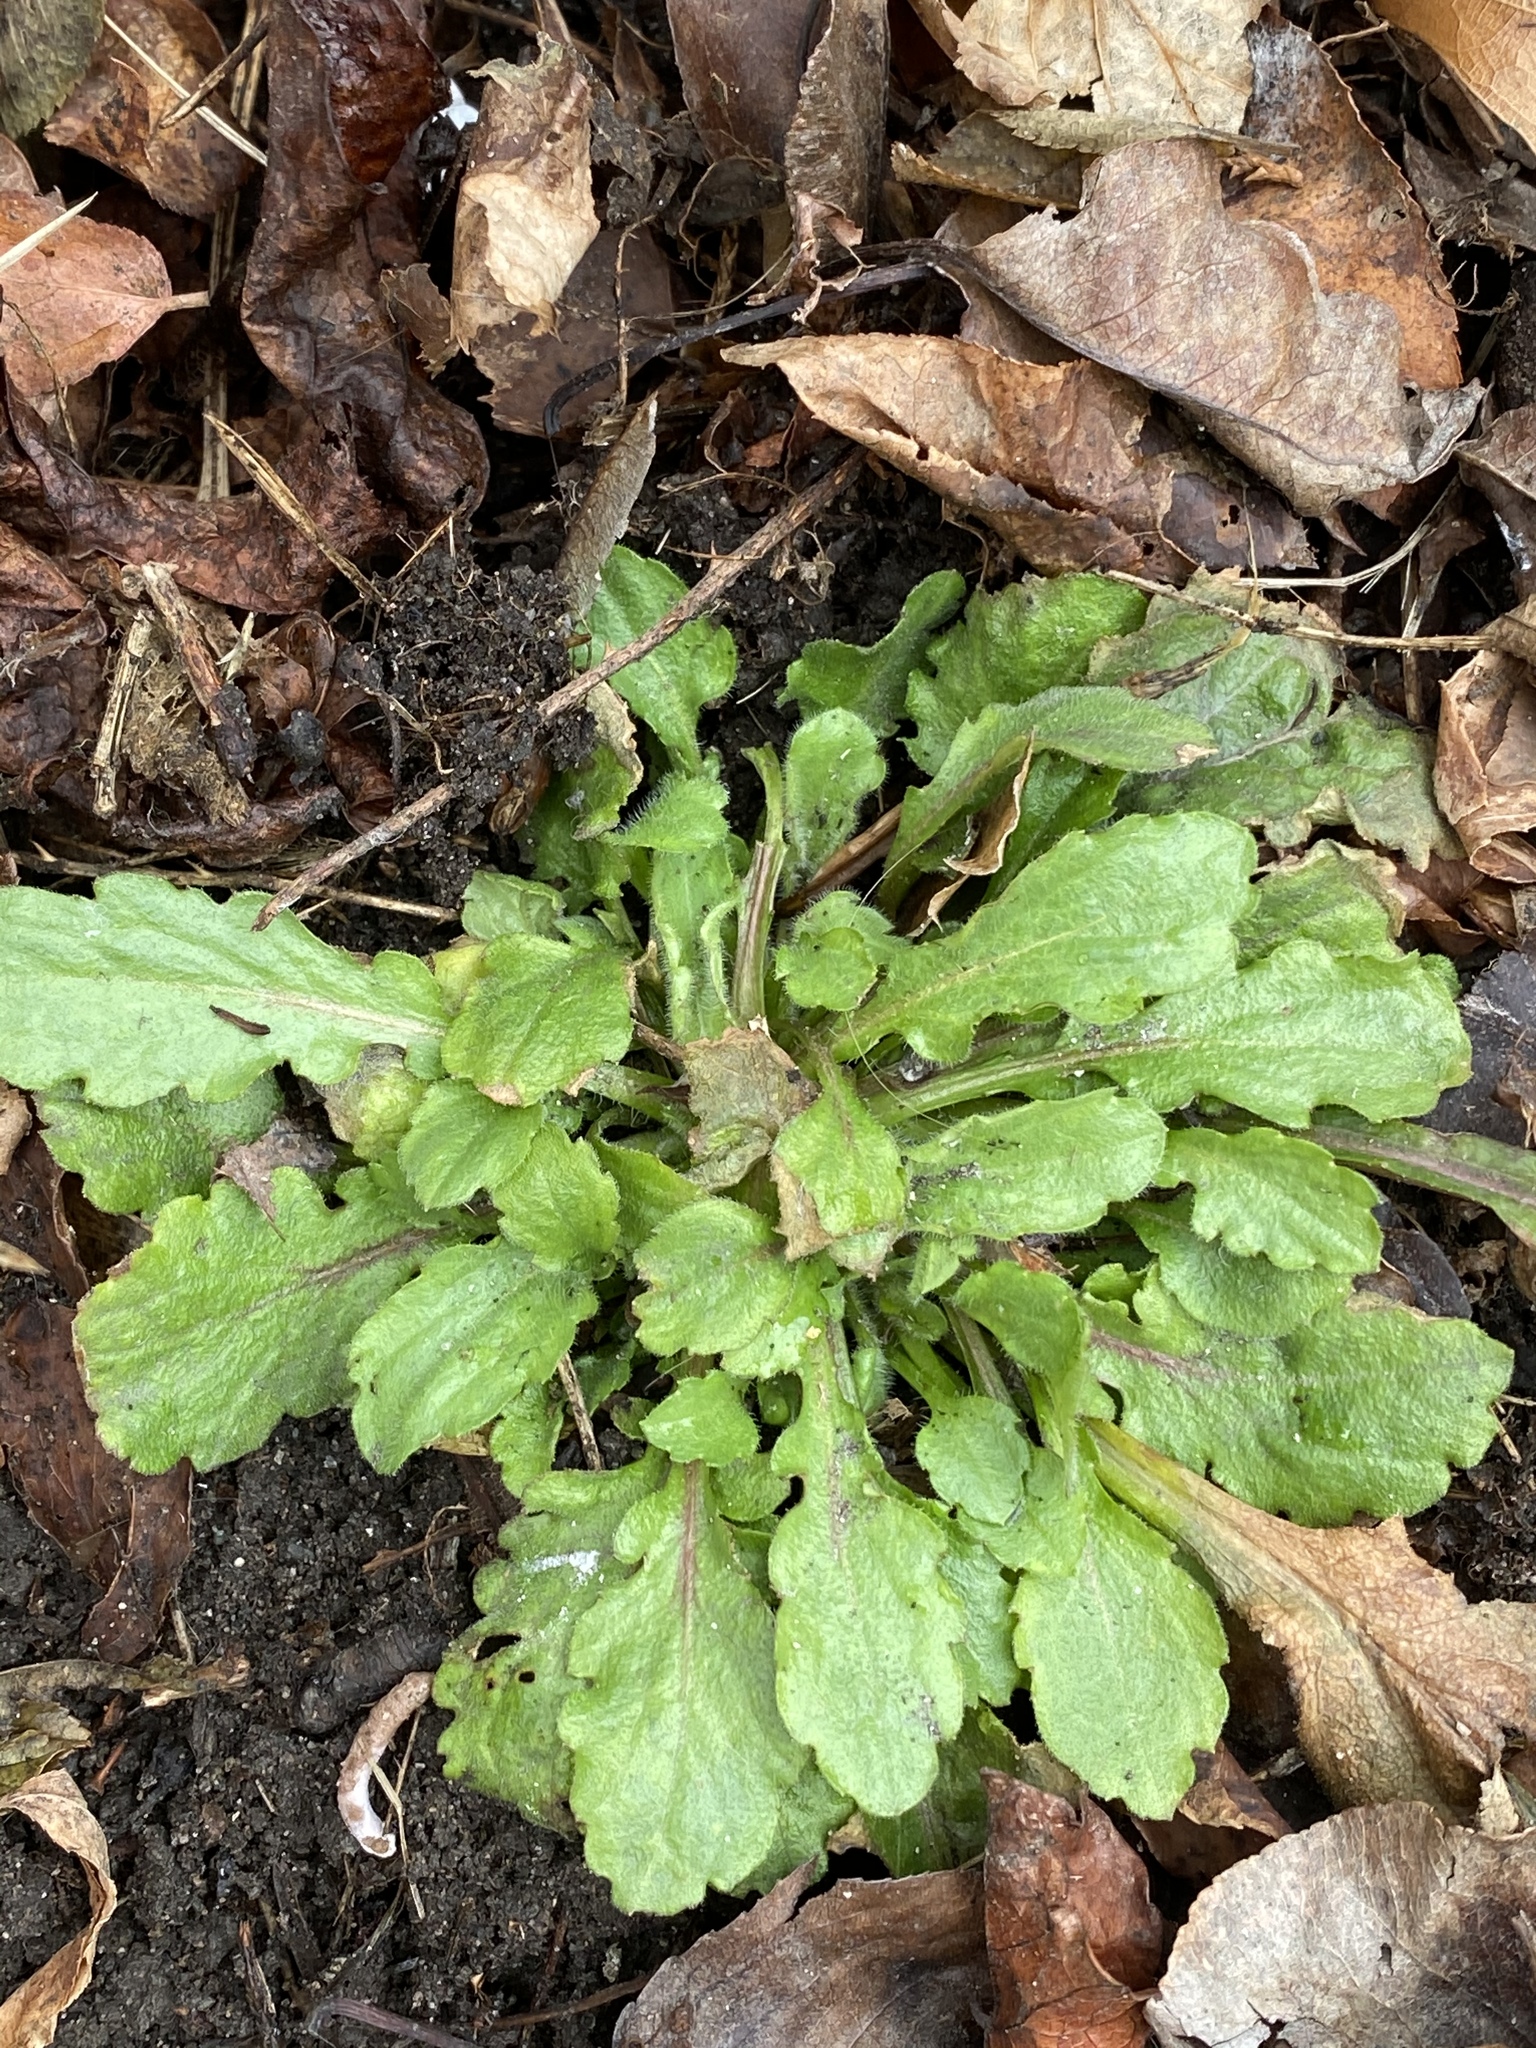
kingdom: Plantae
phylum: Tracheophyta
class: Magnoliopsida
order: Asterales
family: Asteraceae
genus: Erigeron
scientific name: Erigeron canadensis
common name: Canadian fleabane
